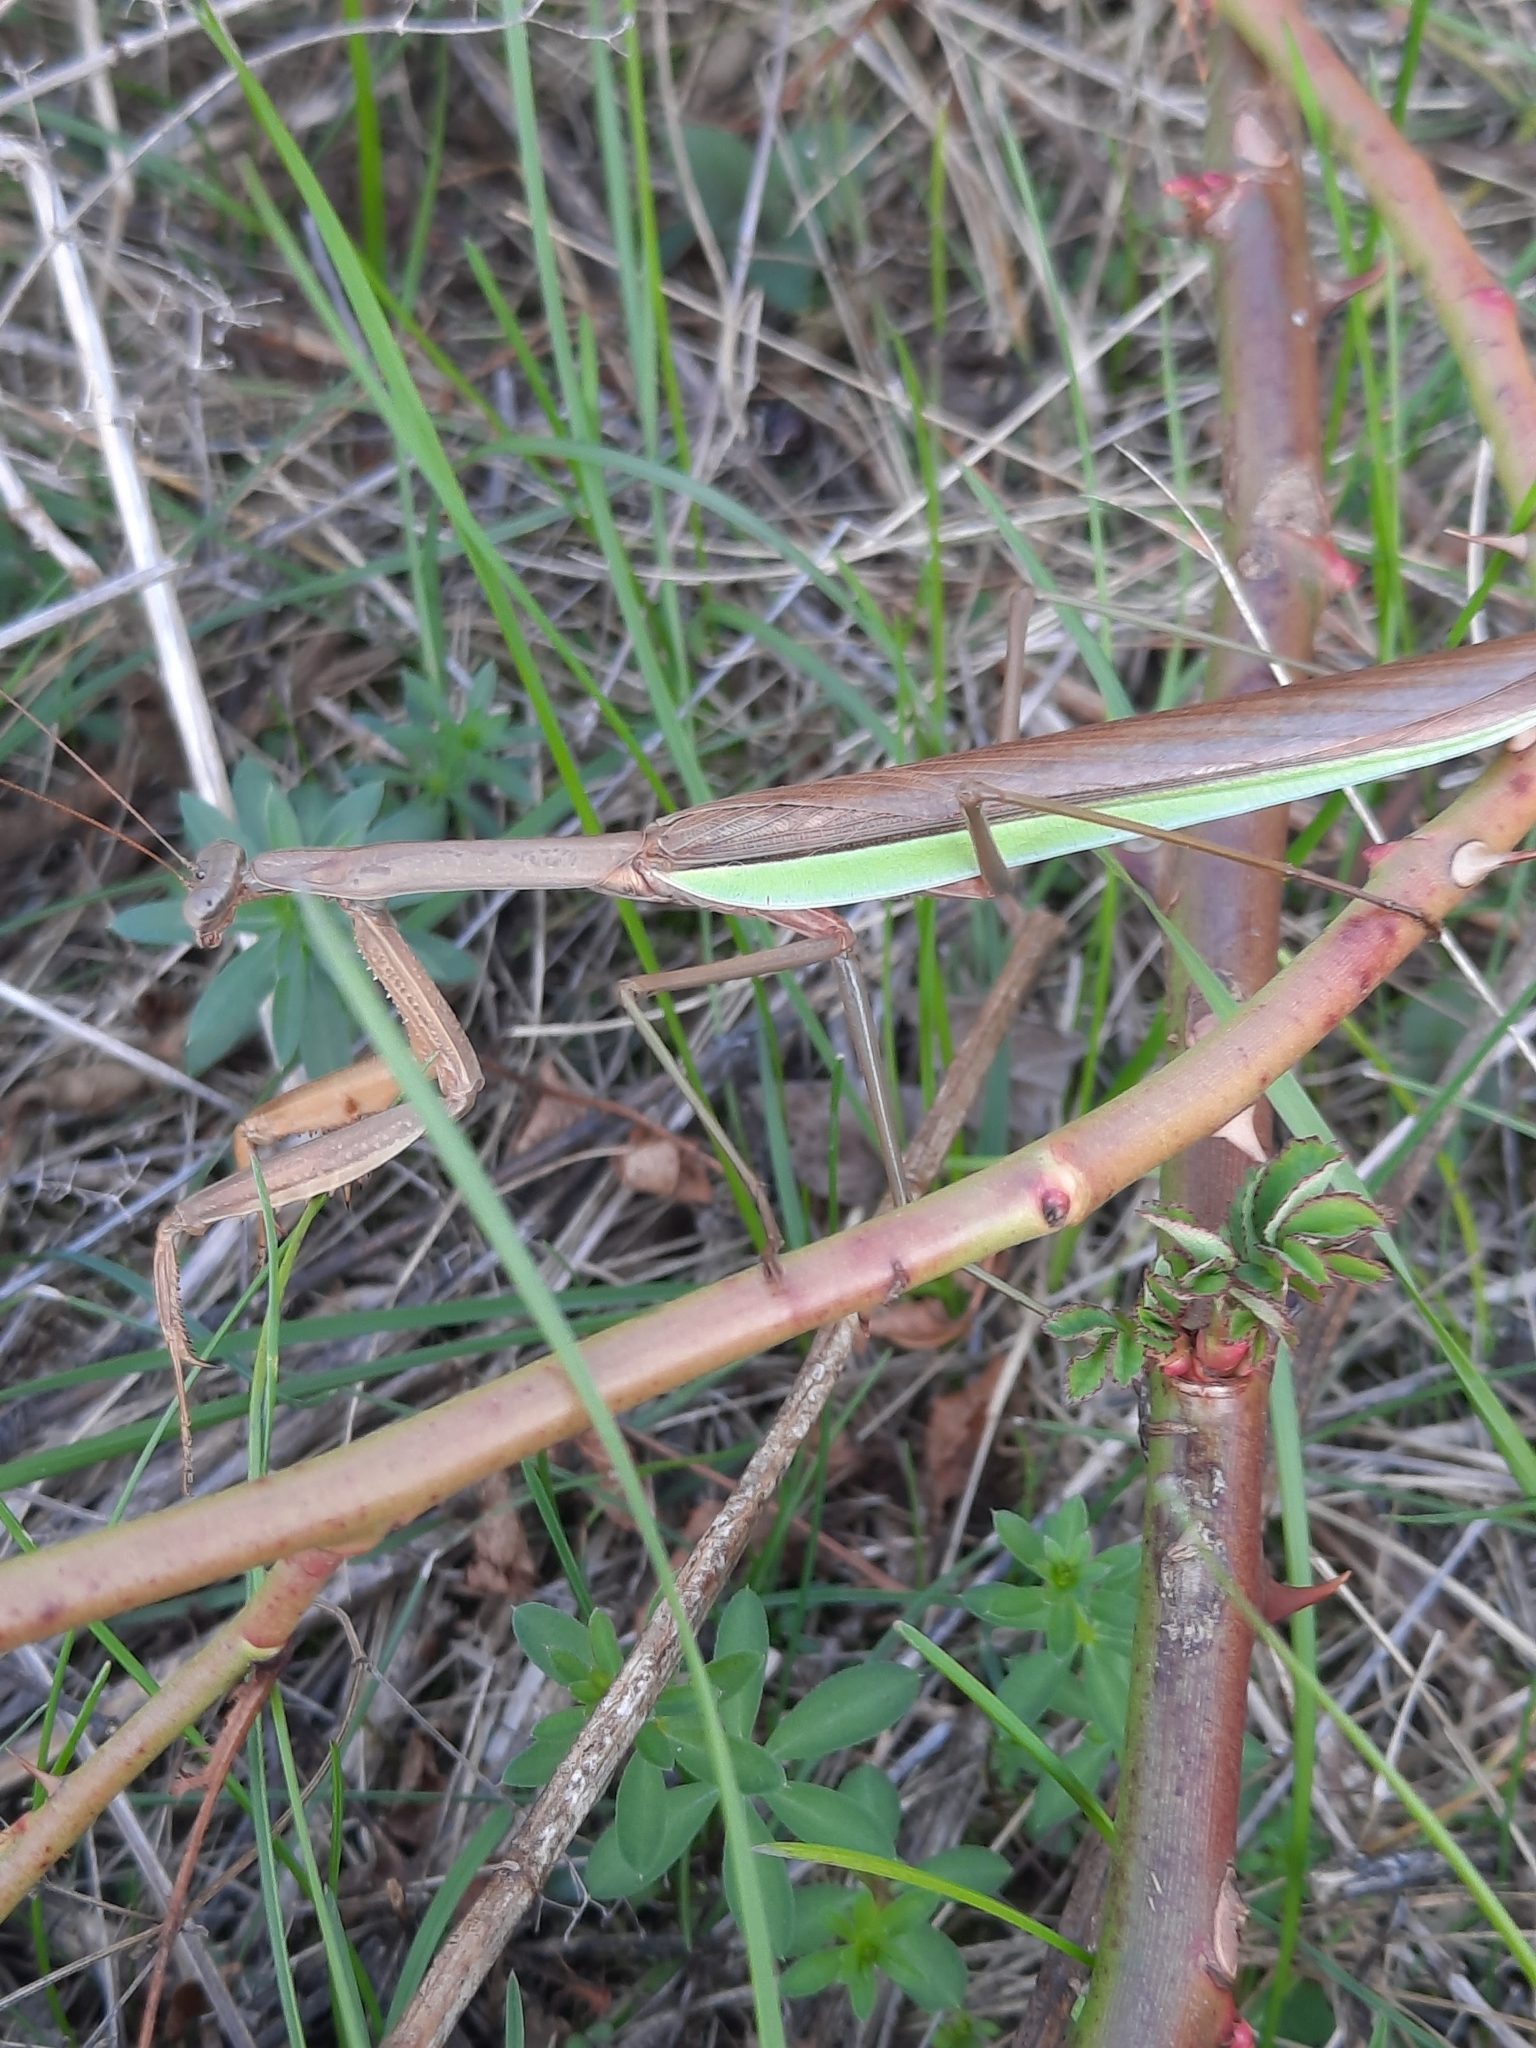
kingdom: Animalia
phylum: Arthropoda
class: Insecta
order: Mantodea
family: Mantidae
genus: Tenodera
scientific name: Tenodera sinensis
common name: Chinese mantis
